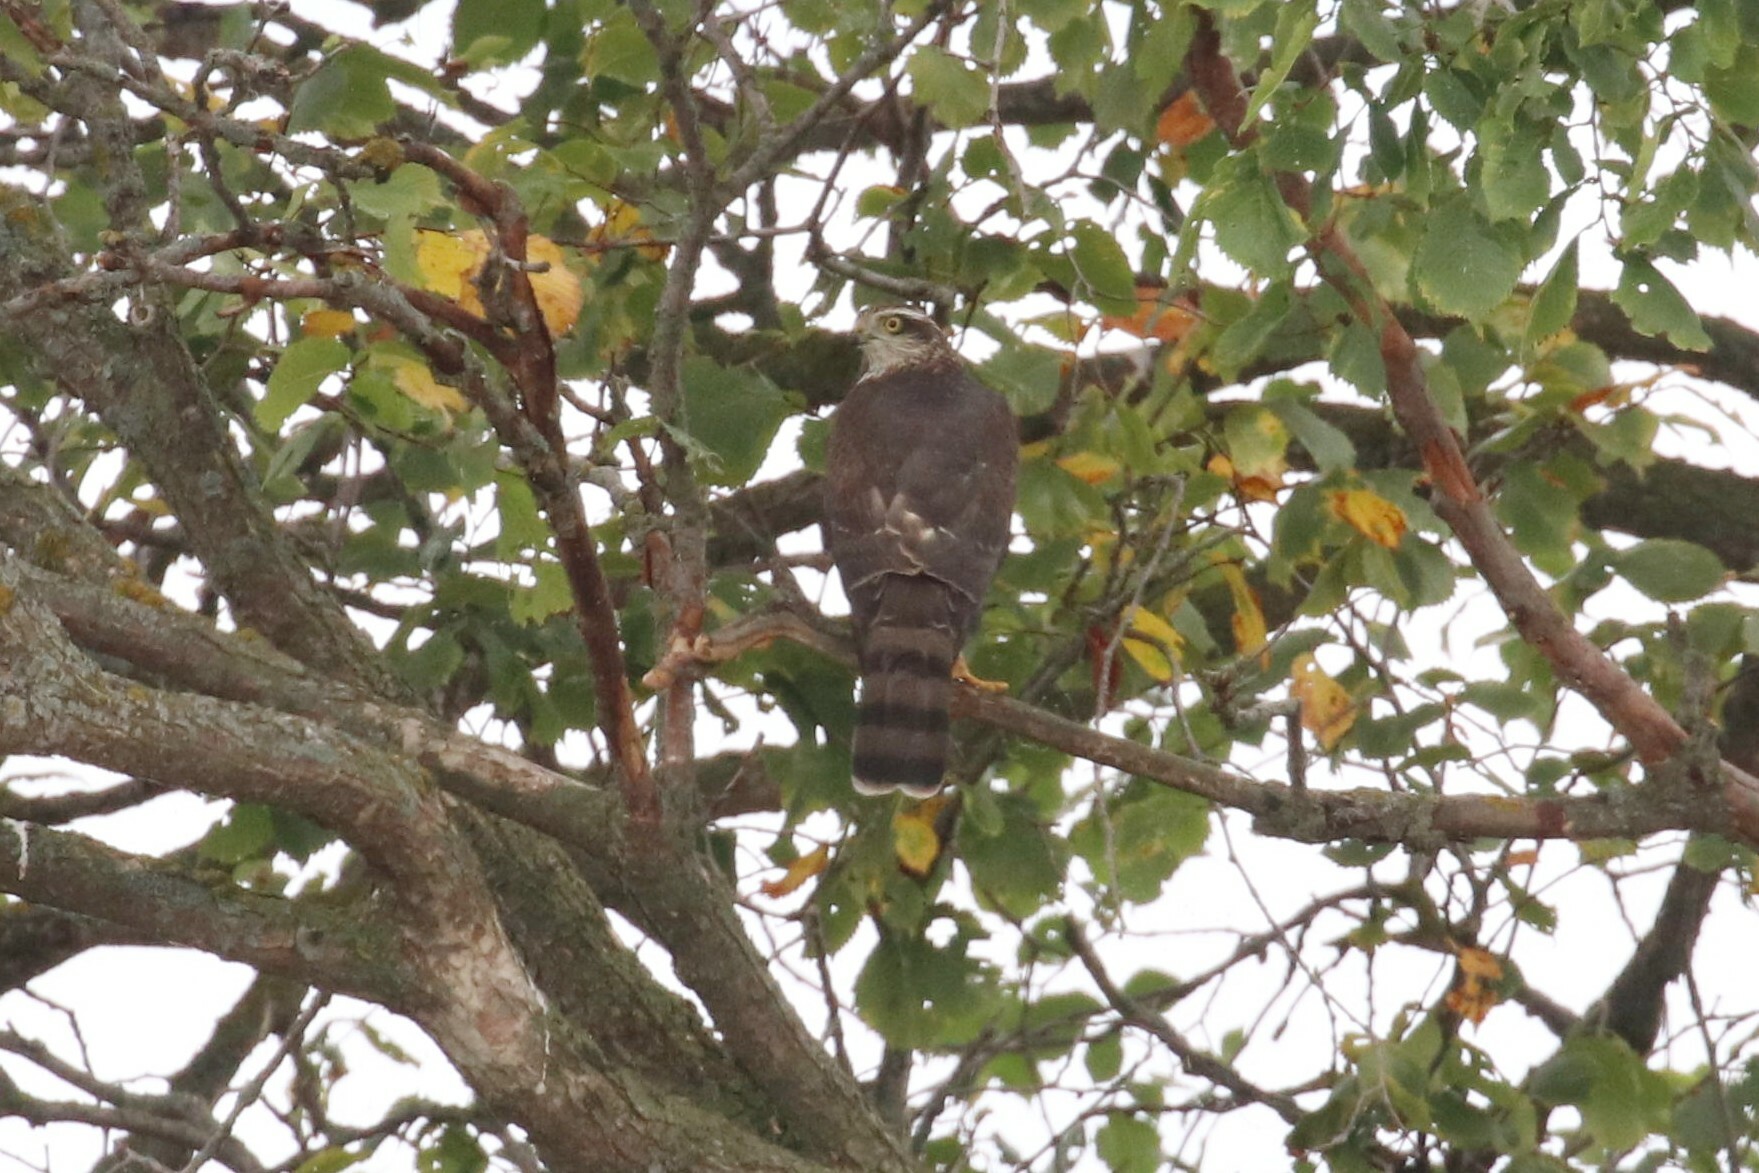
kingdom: Animalia
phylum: Chordata
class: Aves
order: Accipitriformes
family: Accipitridae
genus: Accipiter
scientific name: Accipiter nisus
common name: Eurasian sparrowhawk
